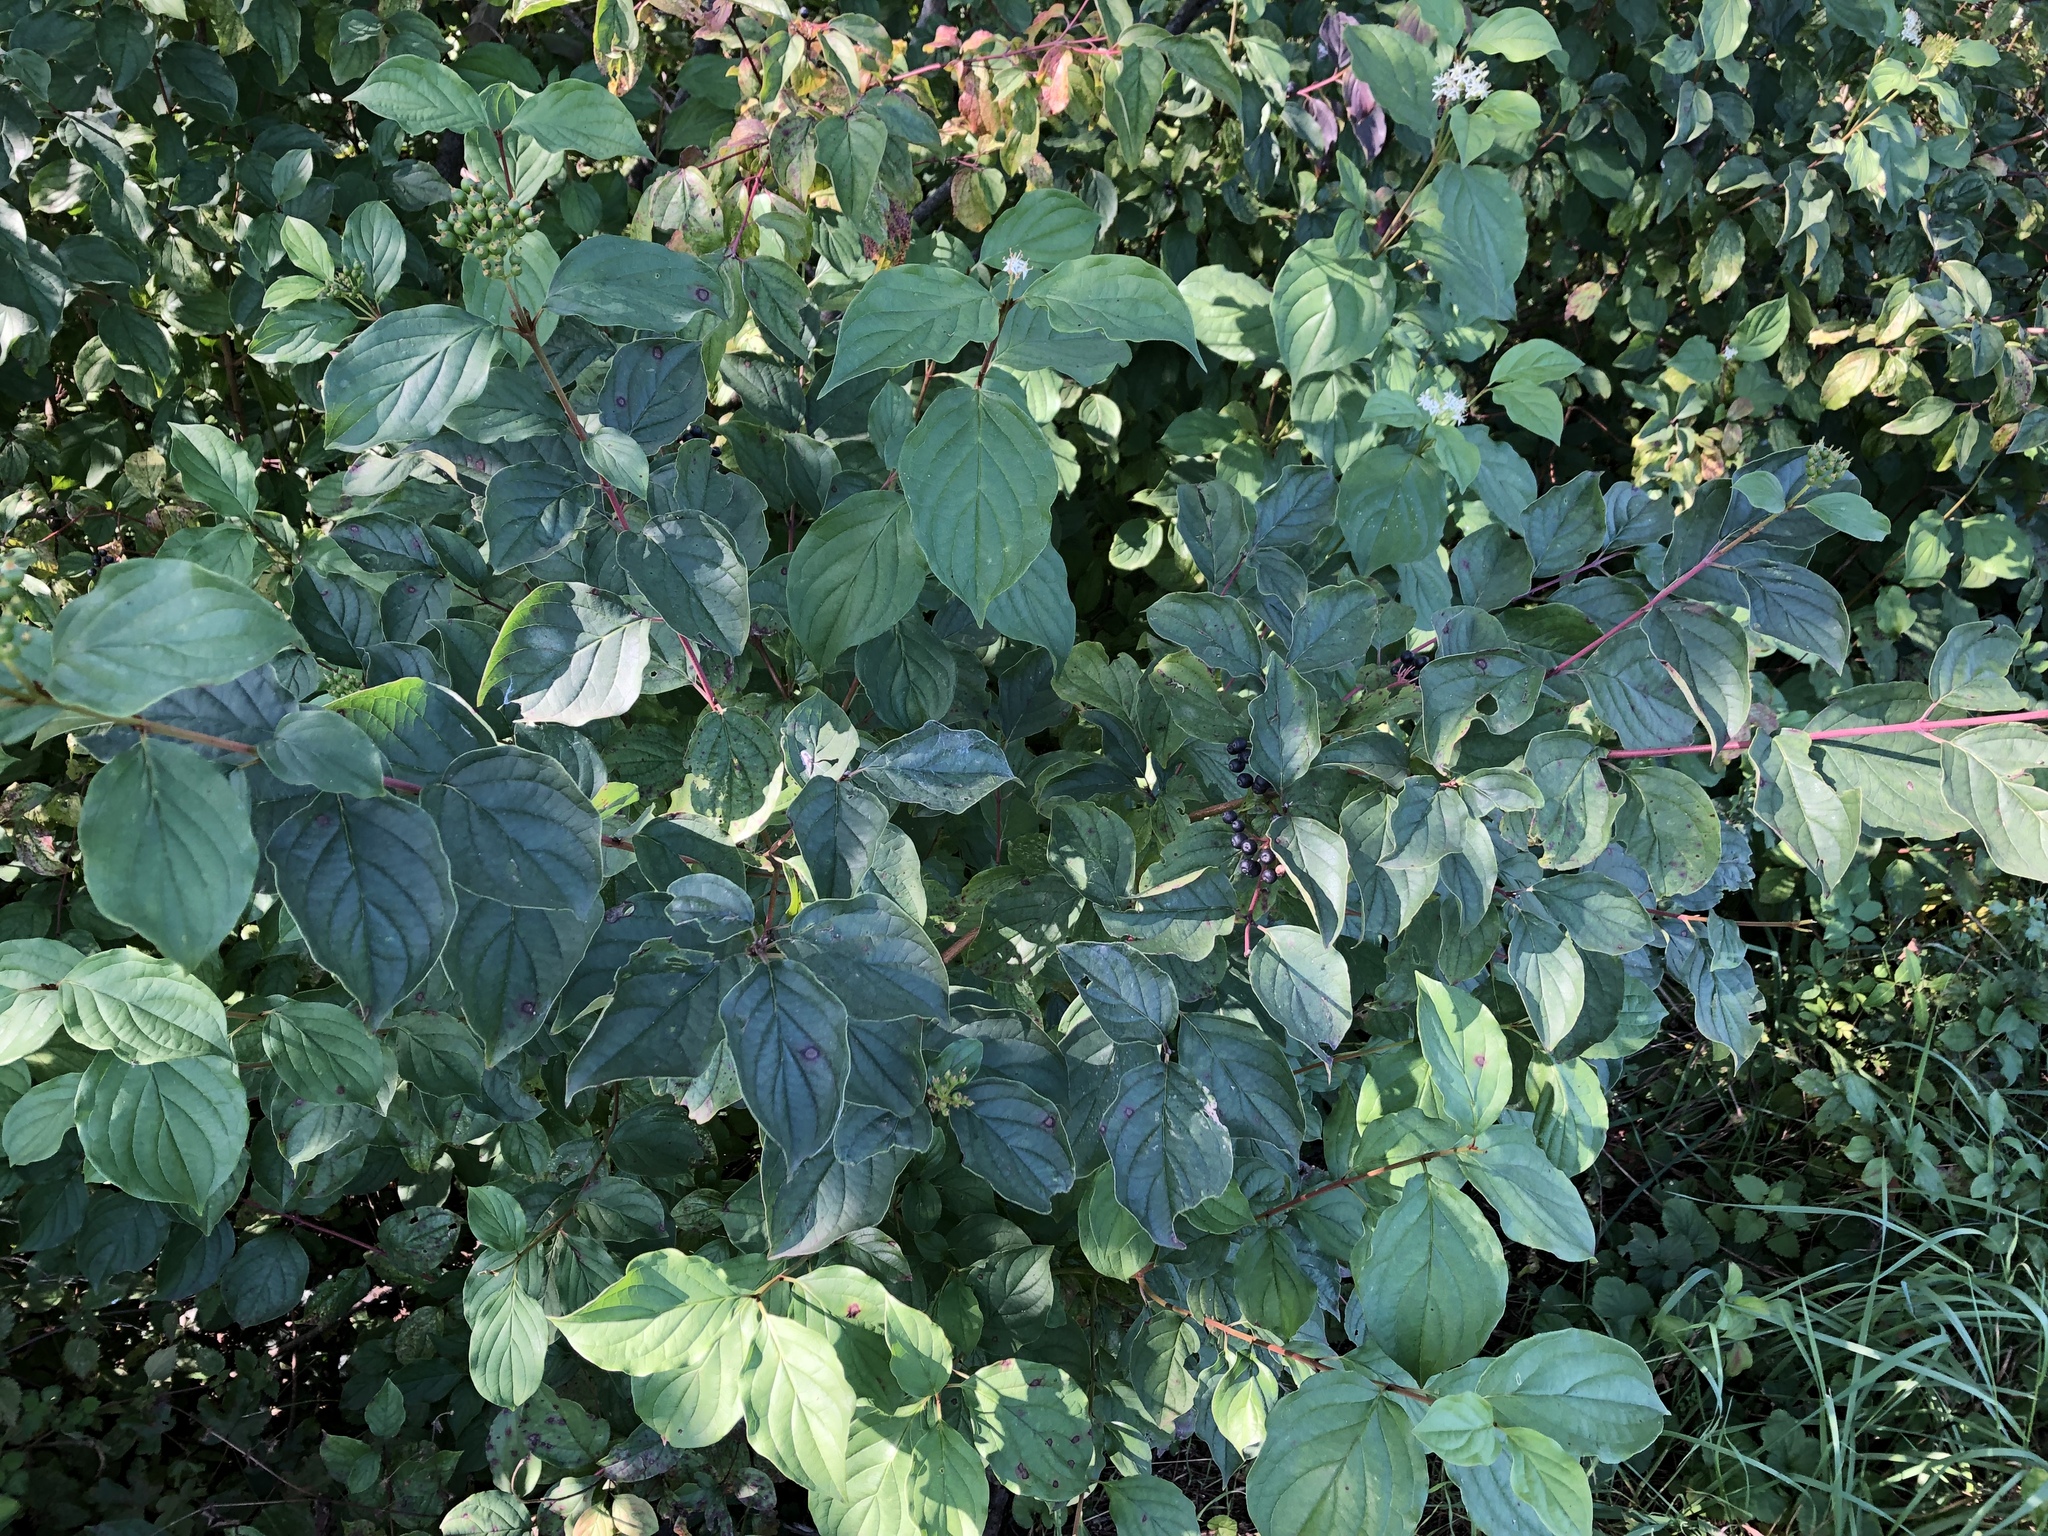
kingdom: Plantae
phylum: Tracheophyta
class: Magnoliopsida
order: Cornales
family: Cornaceae
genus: Cornus
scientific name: Cornus sanguinea
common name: Dogwood
